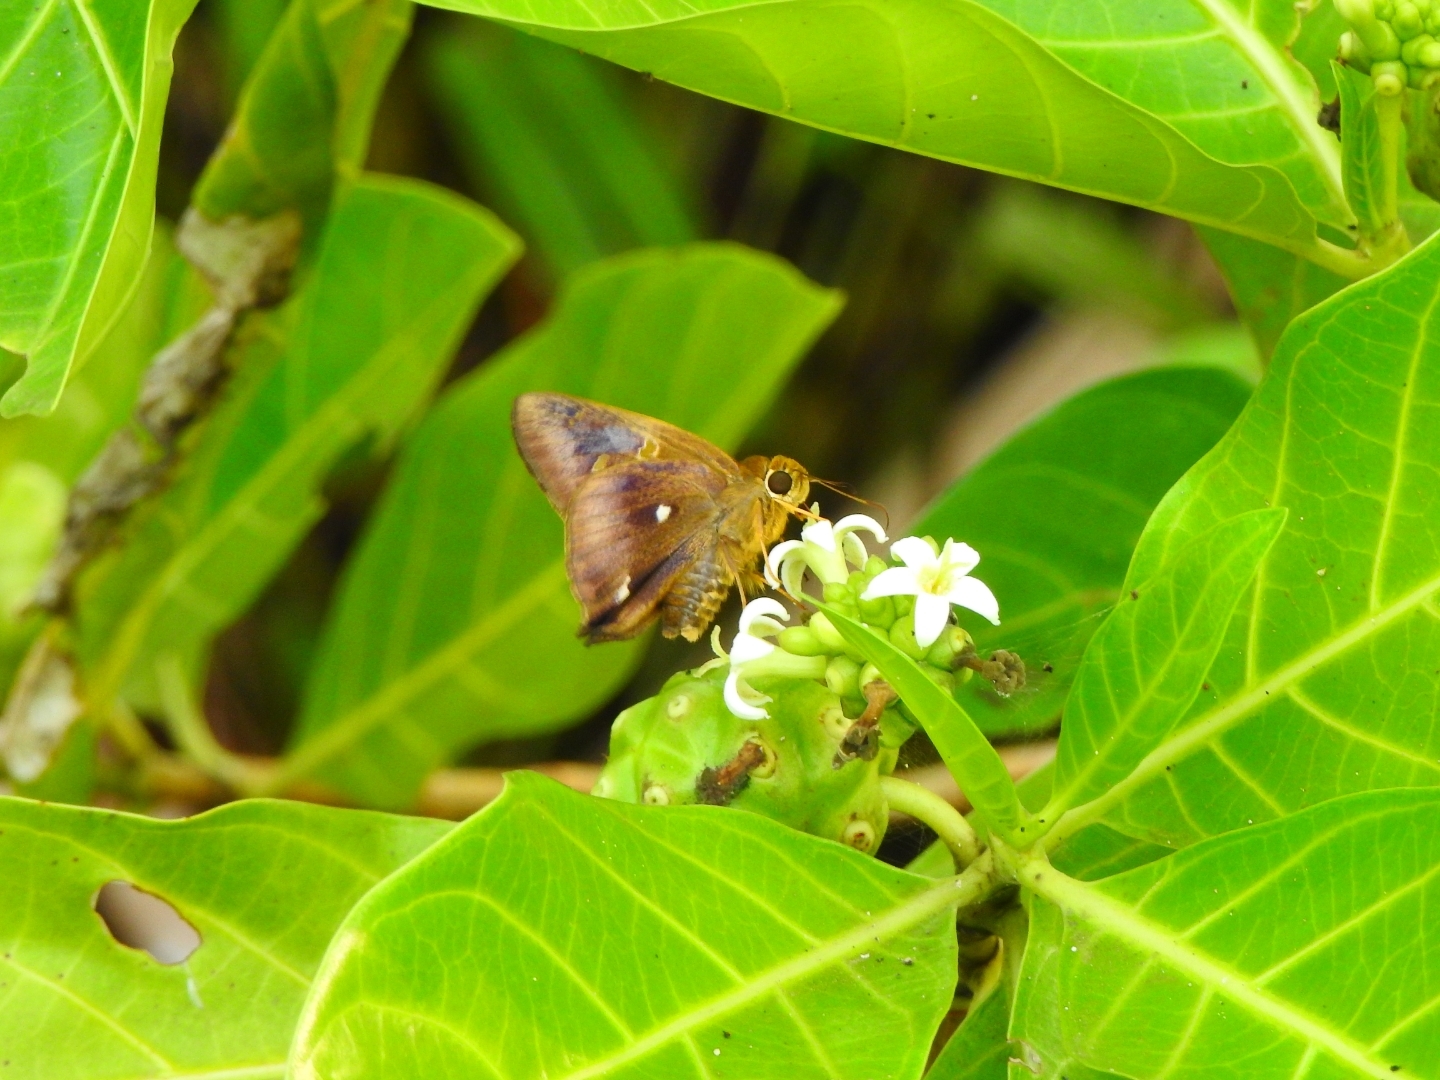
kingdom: Animalia
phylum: Arthropoda
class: Insecta
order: Lepidoptera
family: Hesperiidae
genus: Hasora
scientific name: Hasora badra
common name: Common awl
